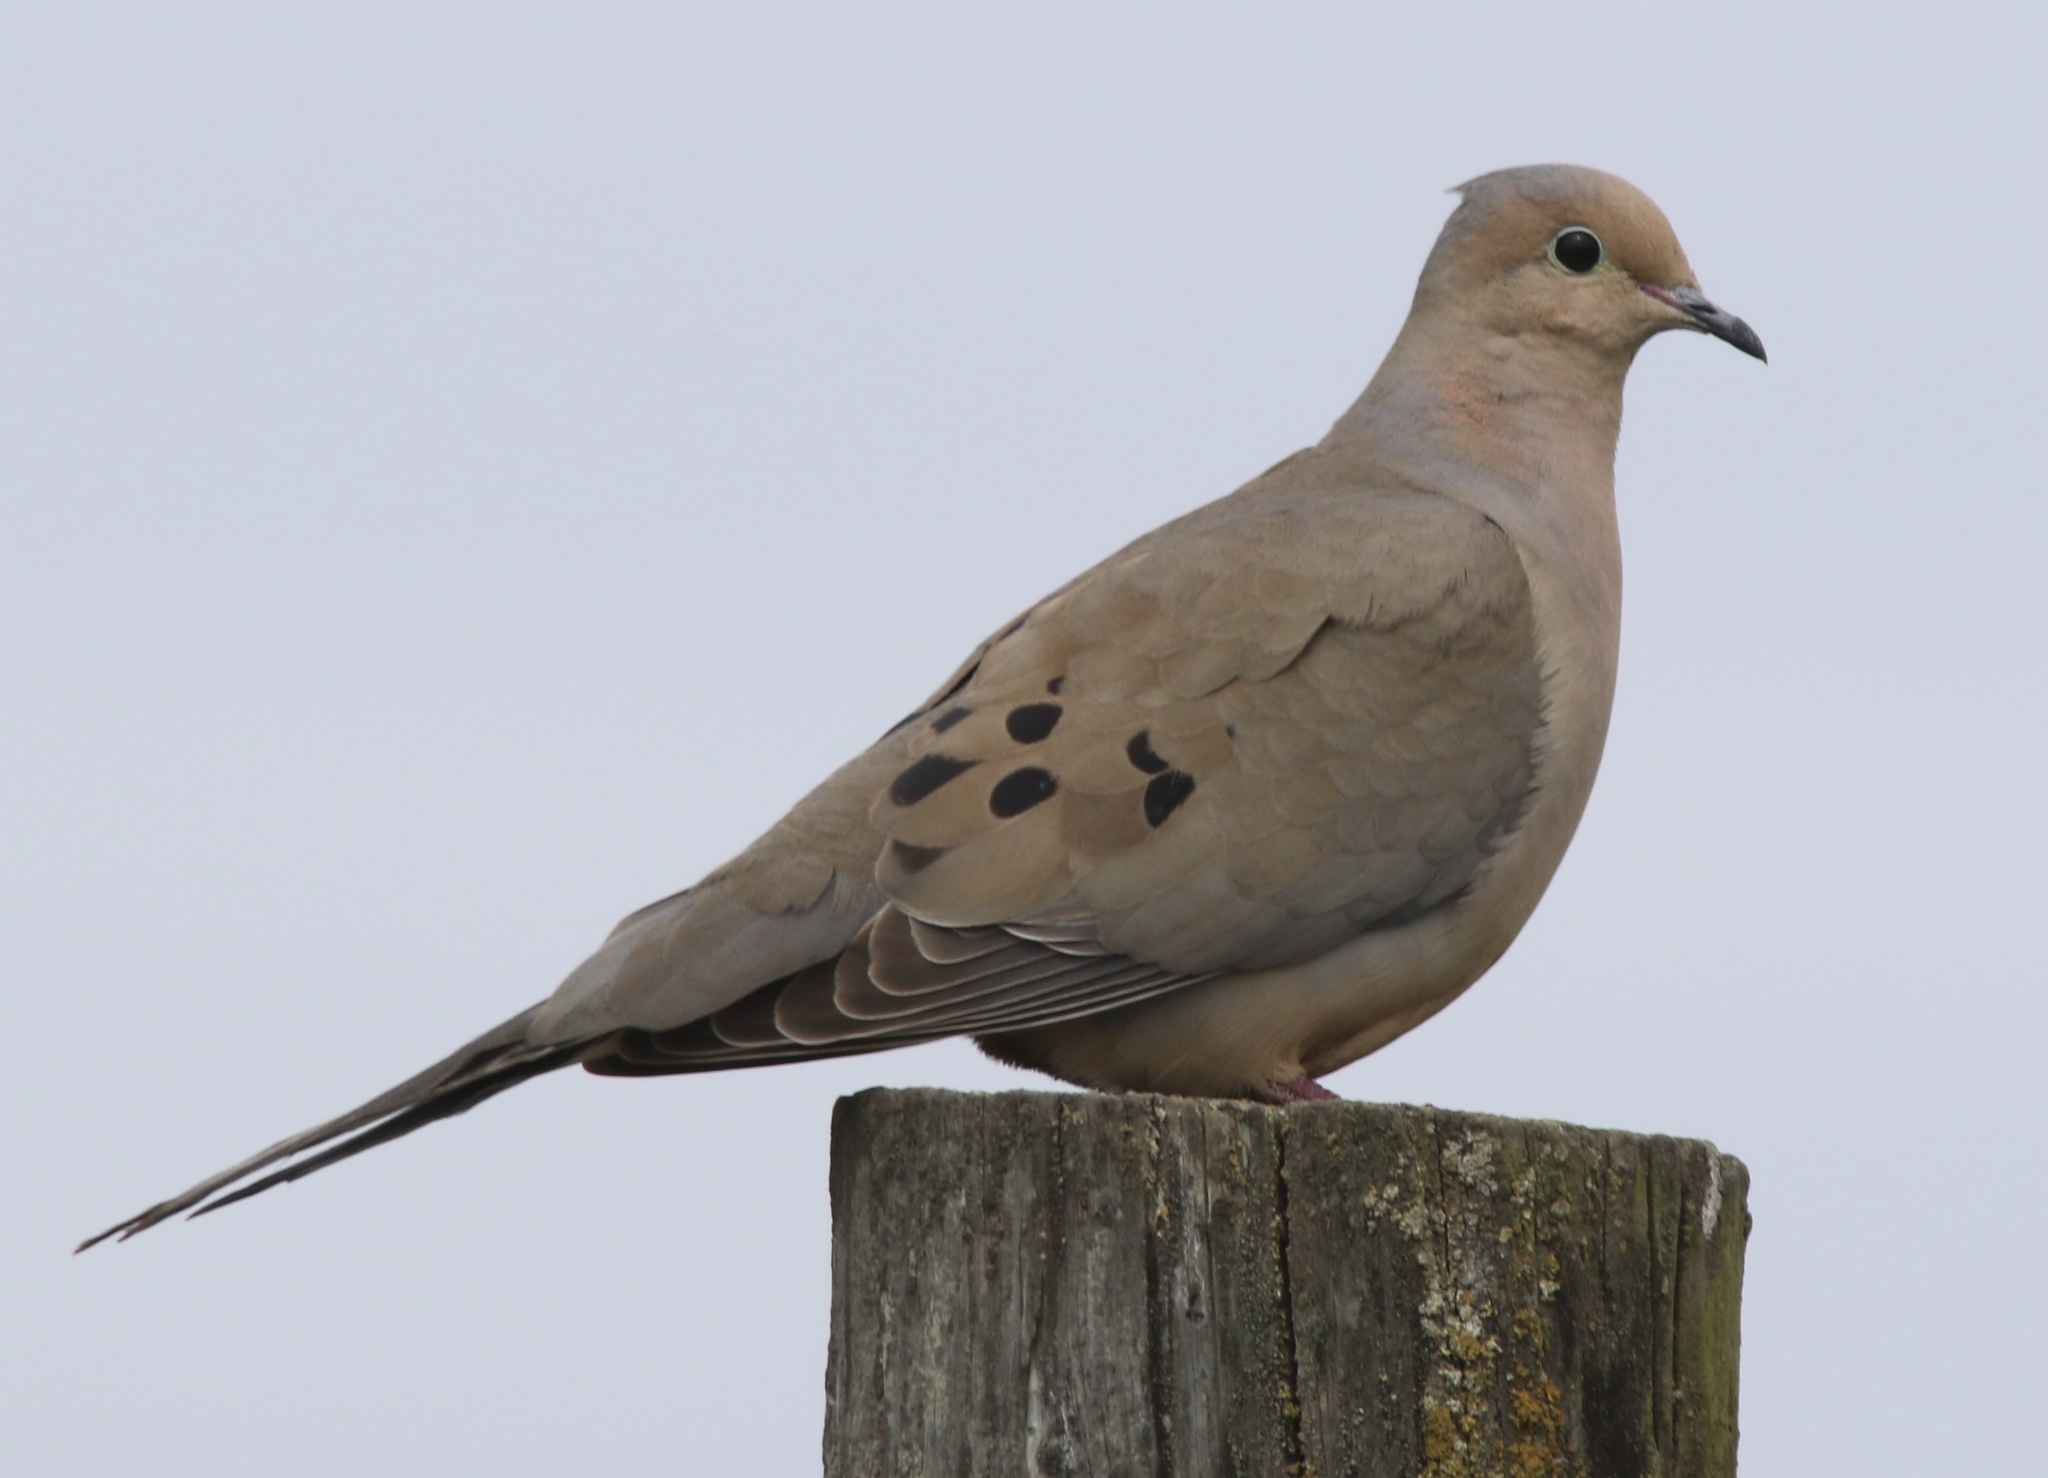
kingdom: Animalia
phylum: Chordata
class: Aves
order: Columbiformes
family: Columbidae
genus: Zenaida
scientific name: Zenaida macroura
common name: Mourning dove
